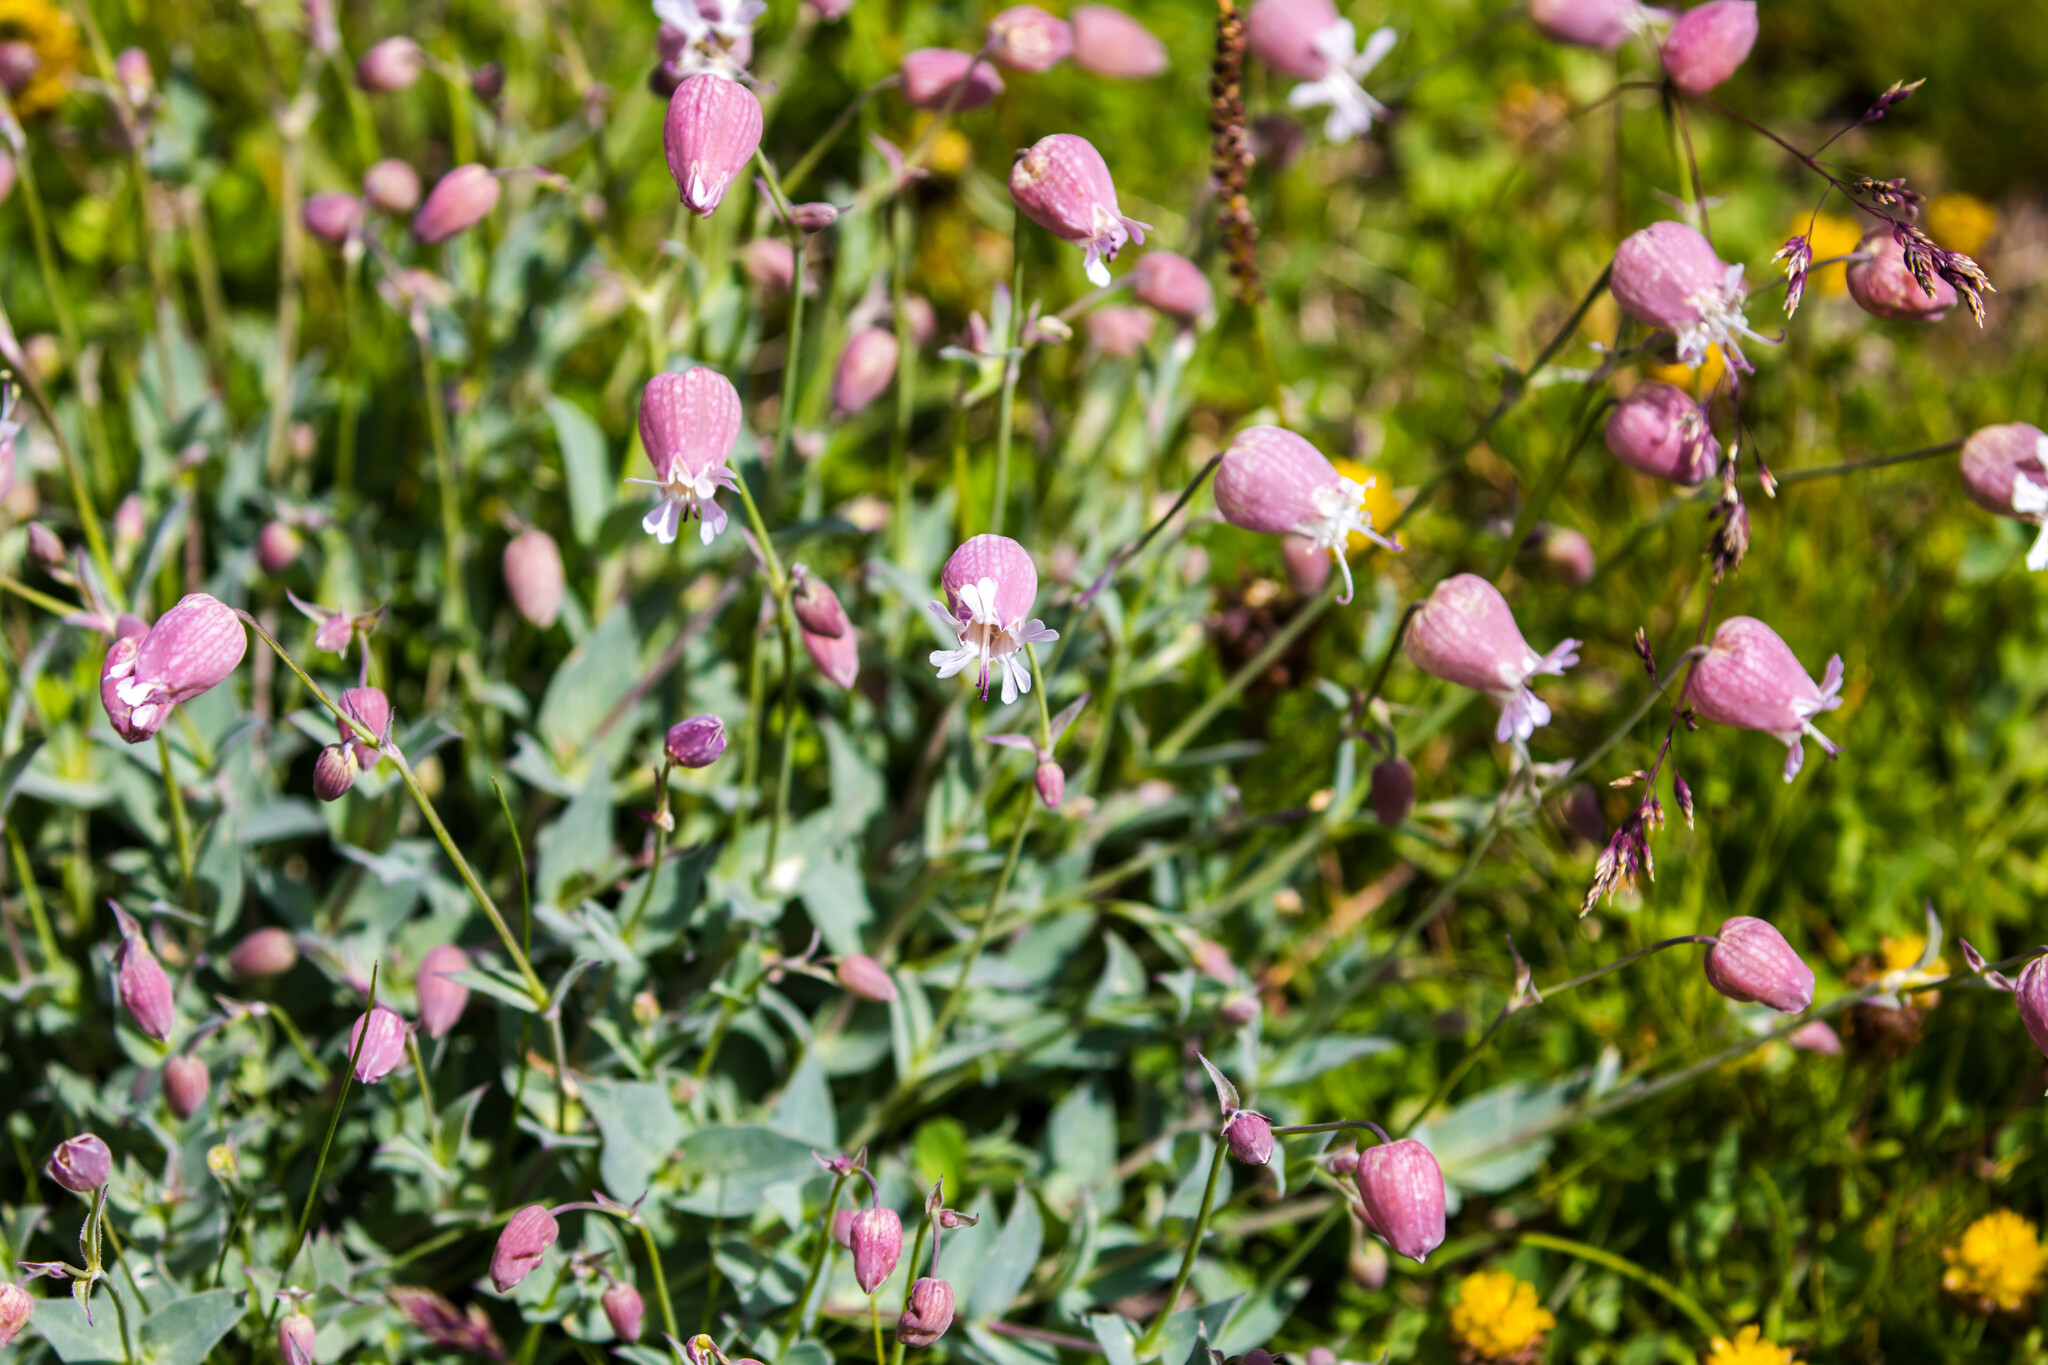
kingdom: Plantae
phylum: Tracheophyta
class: Magnoliopsida
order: Caryophyllales
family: Caryophyllaceae
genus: Silene
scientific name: Silene vulgaris
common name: Bladder campion
